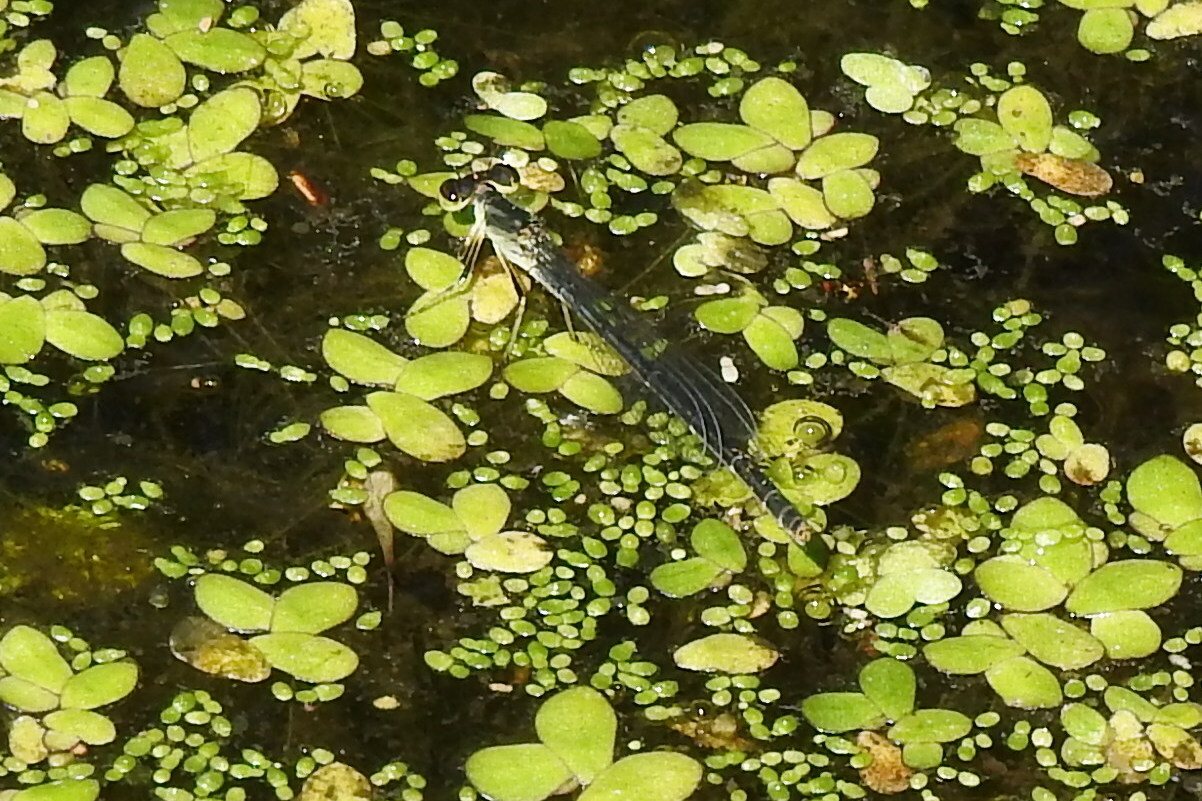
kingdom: Animalia
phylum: Arthropoda
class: Insecta
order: Odonata
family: Coenagrionidae
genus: Ischnura
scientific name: Ischnura posita
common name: Fragile forktail
